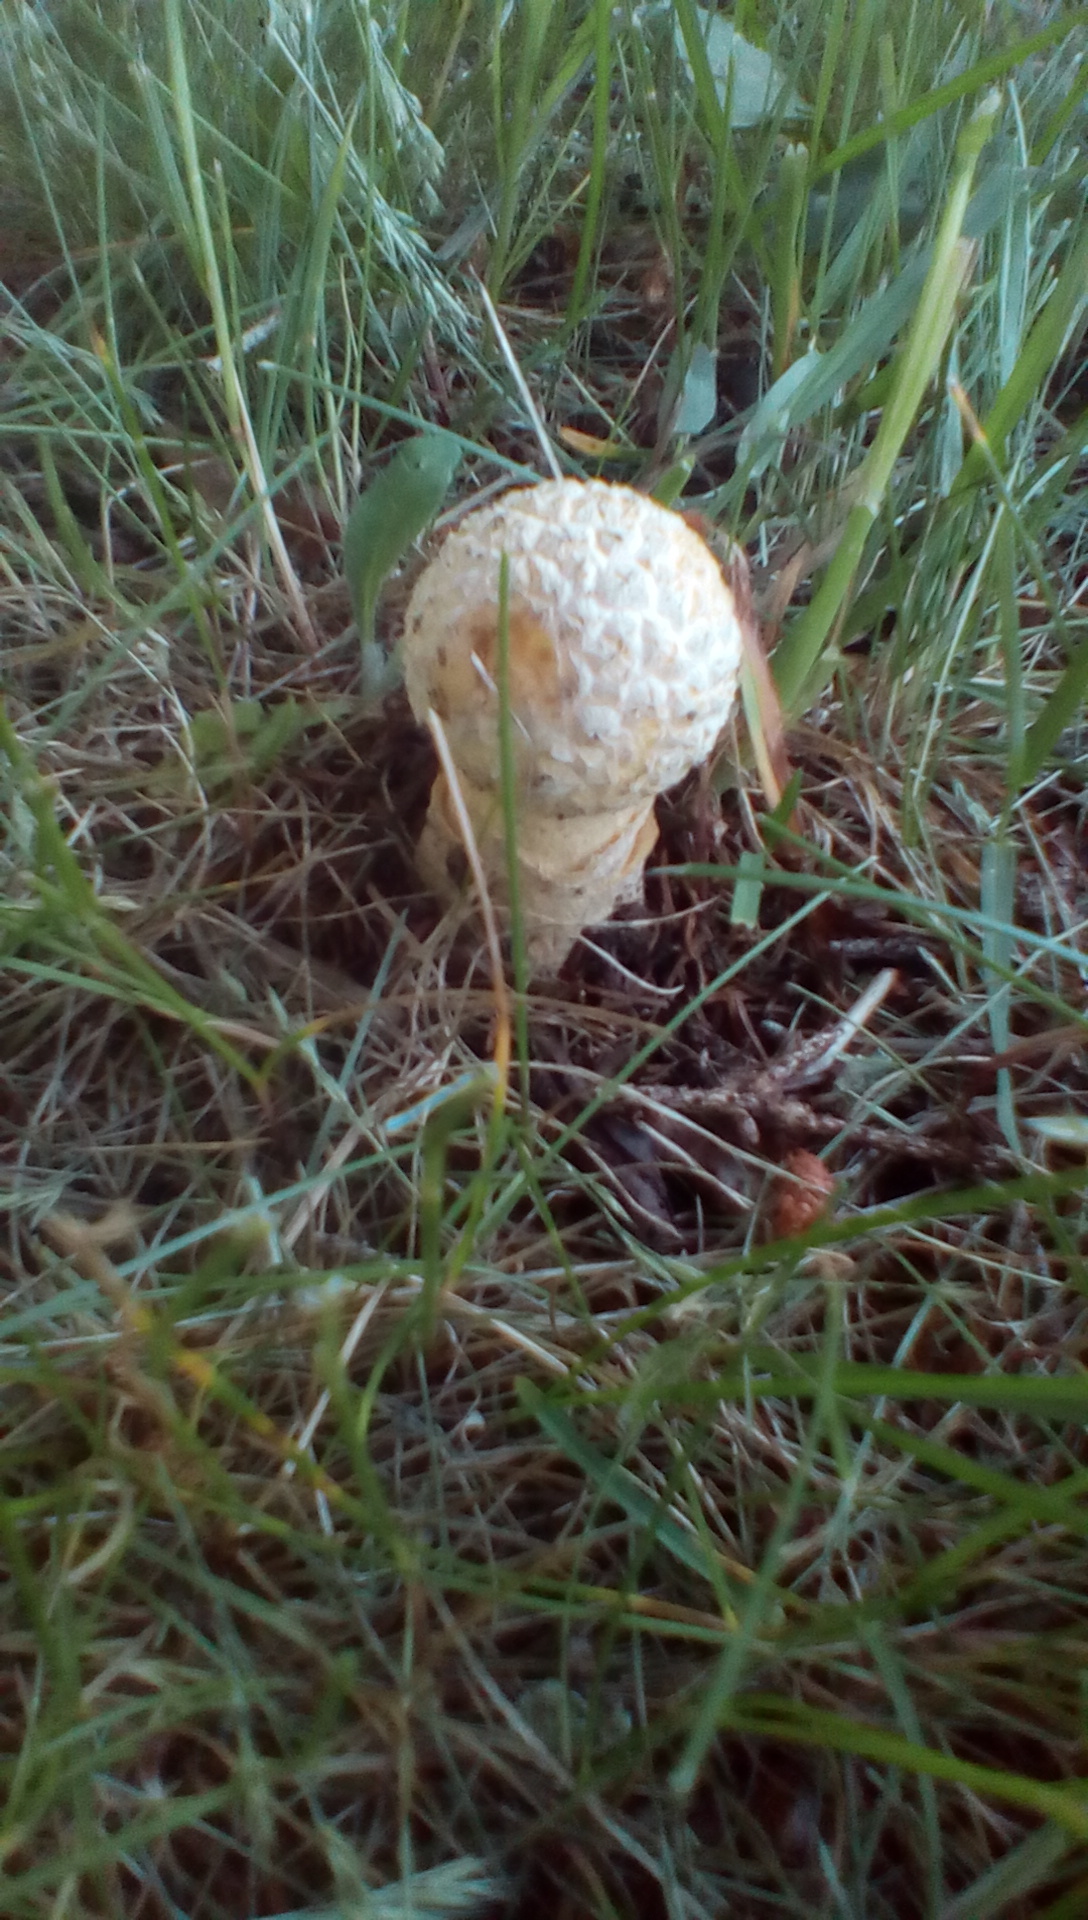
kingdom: Fungi
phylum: Basidiomycota
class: Agaricomycetes
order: Agaricales
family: Amanitaceae
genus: Amanita
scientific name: Amanita muscaria
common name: Fly agaric
